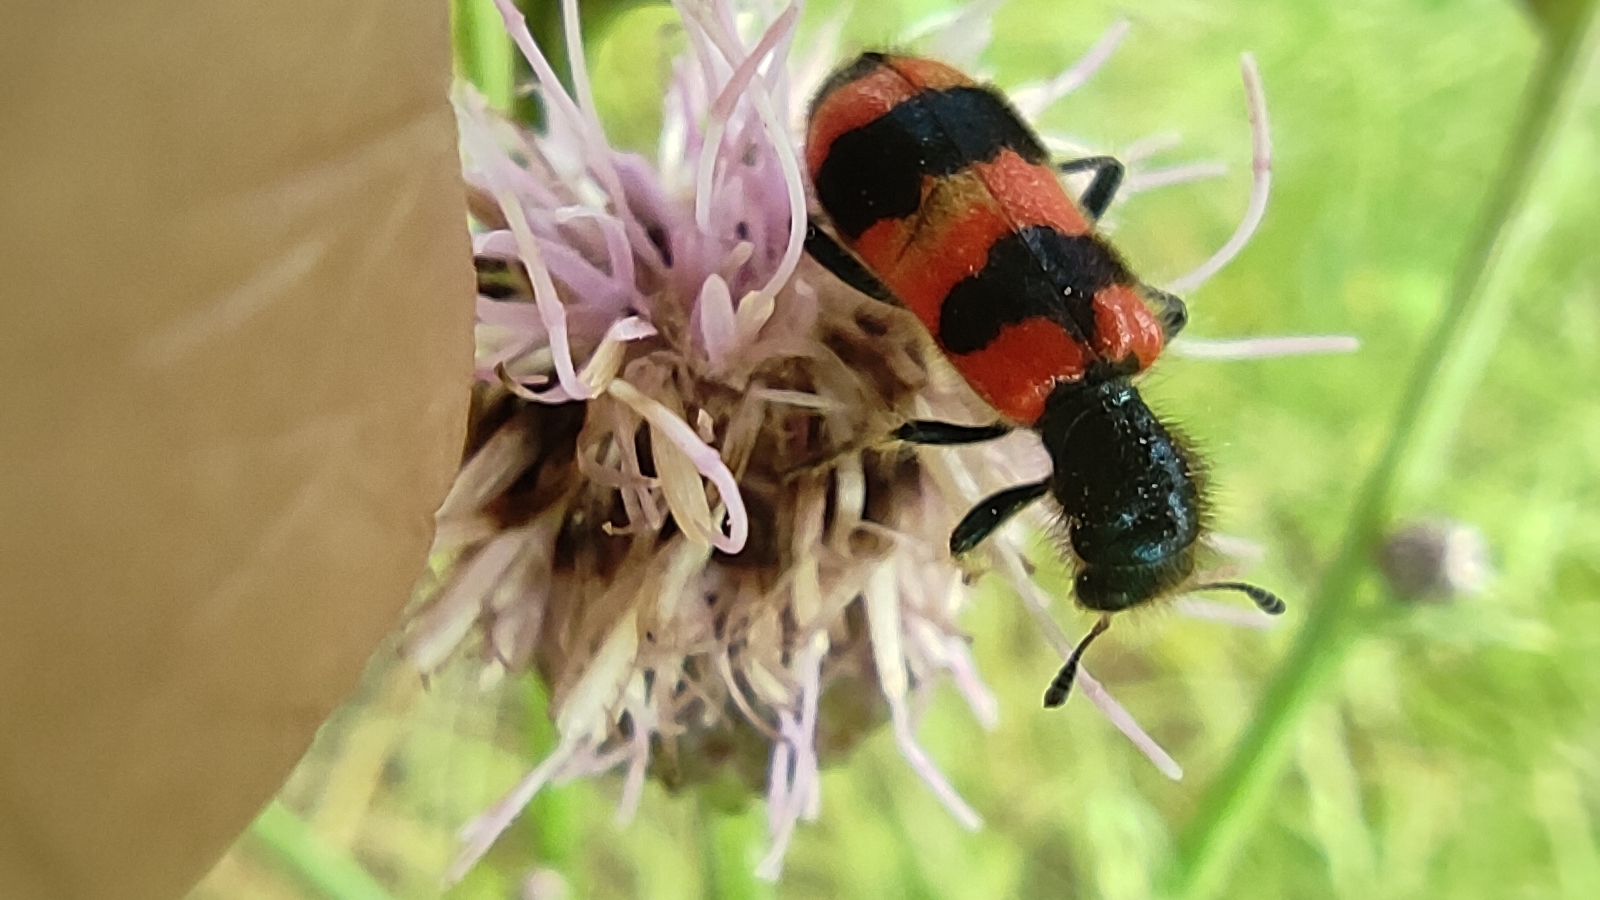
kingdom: Animalia
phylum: Arthropoda
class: Insecta
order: Coleoptera
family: Cleridae
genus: Trichodes
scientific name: Trichodes apiarius
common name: Bee-eating beetle
